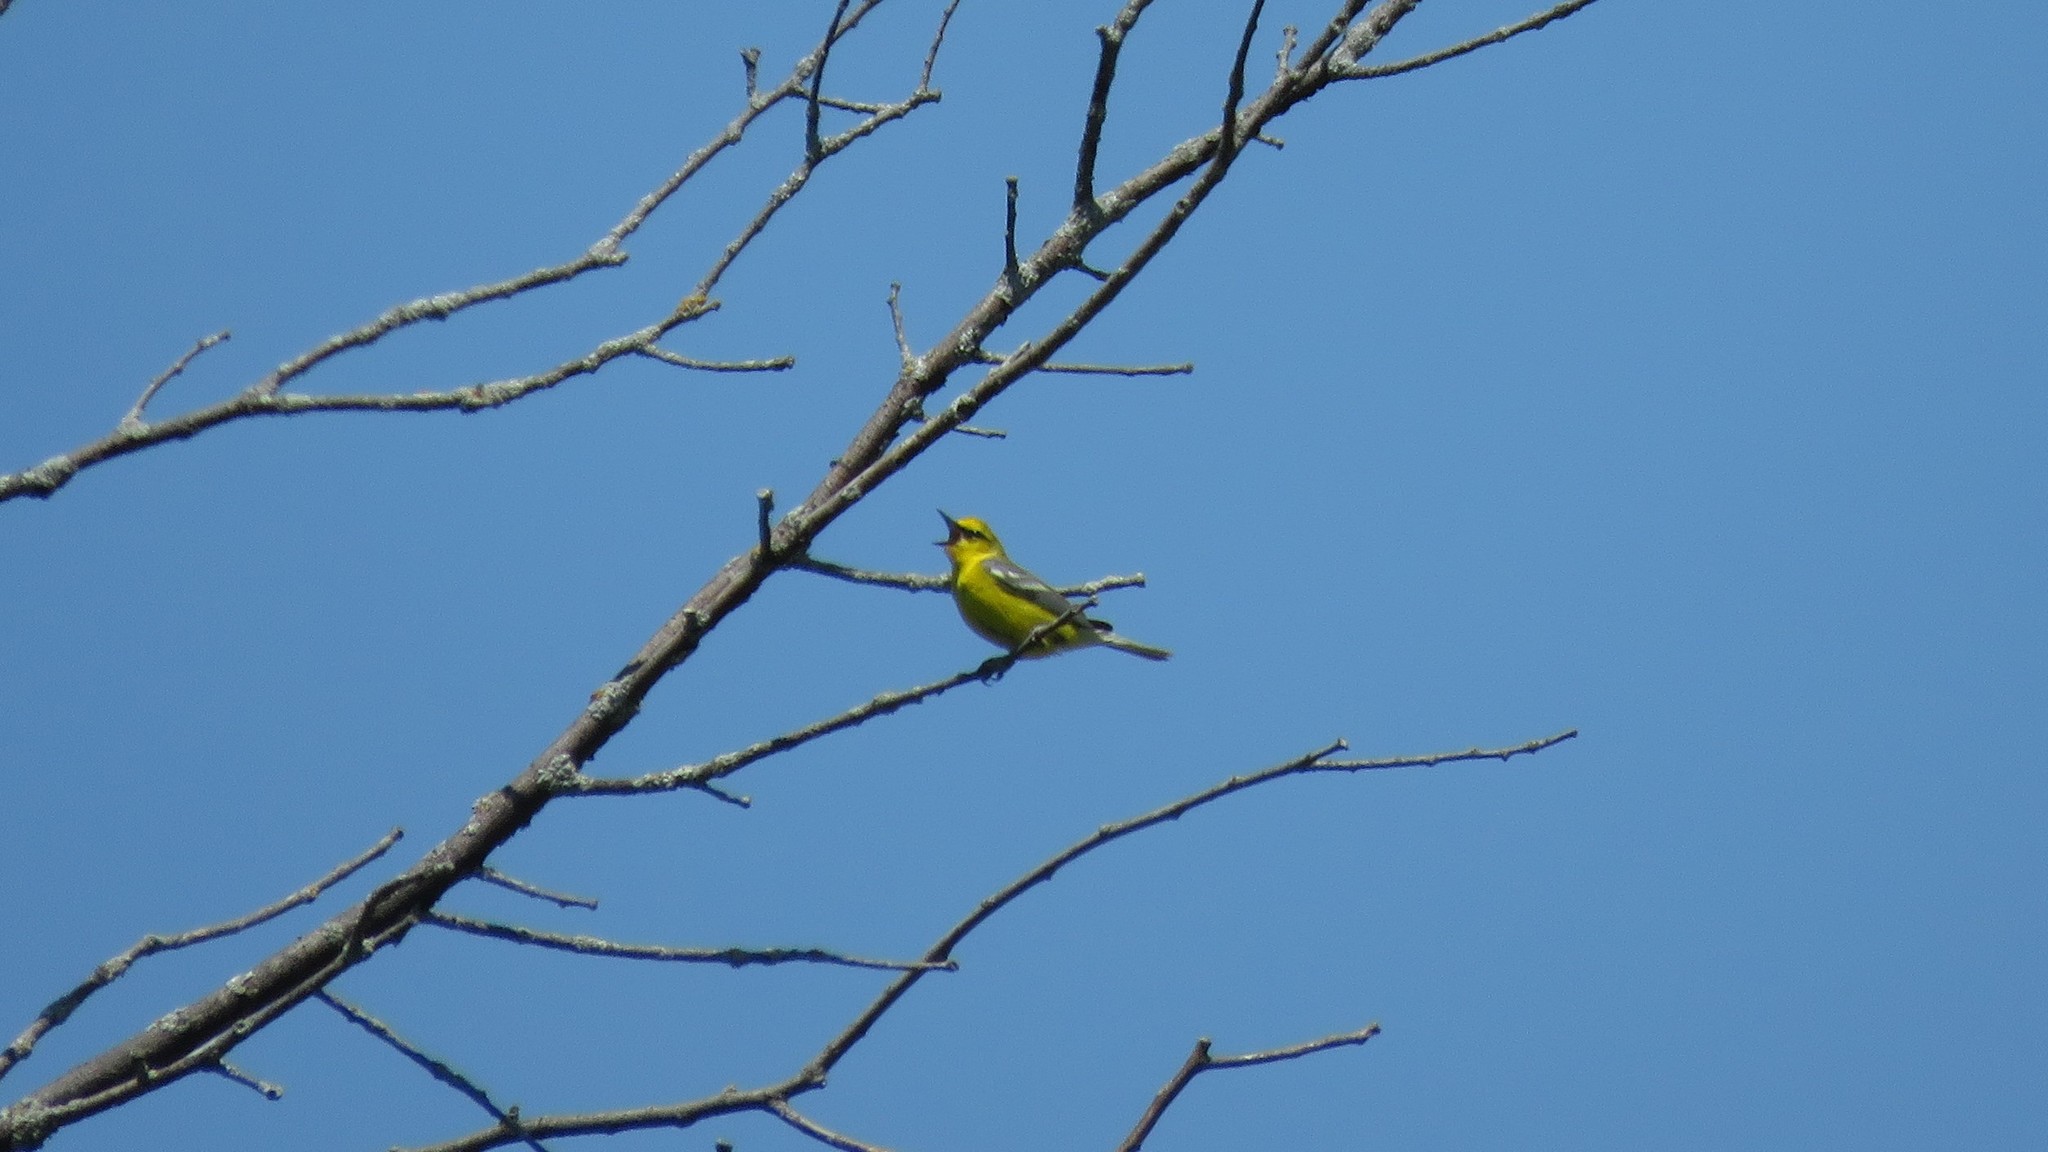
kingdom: Animalia
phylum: Chordata
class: Aves
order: Passeriformes
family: Parulidae
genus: Vermivora
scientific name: Vermivora cyanoptera
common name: Blue-winged warbler
